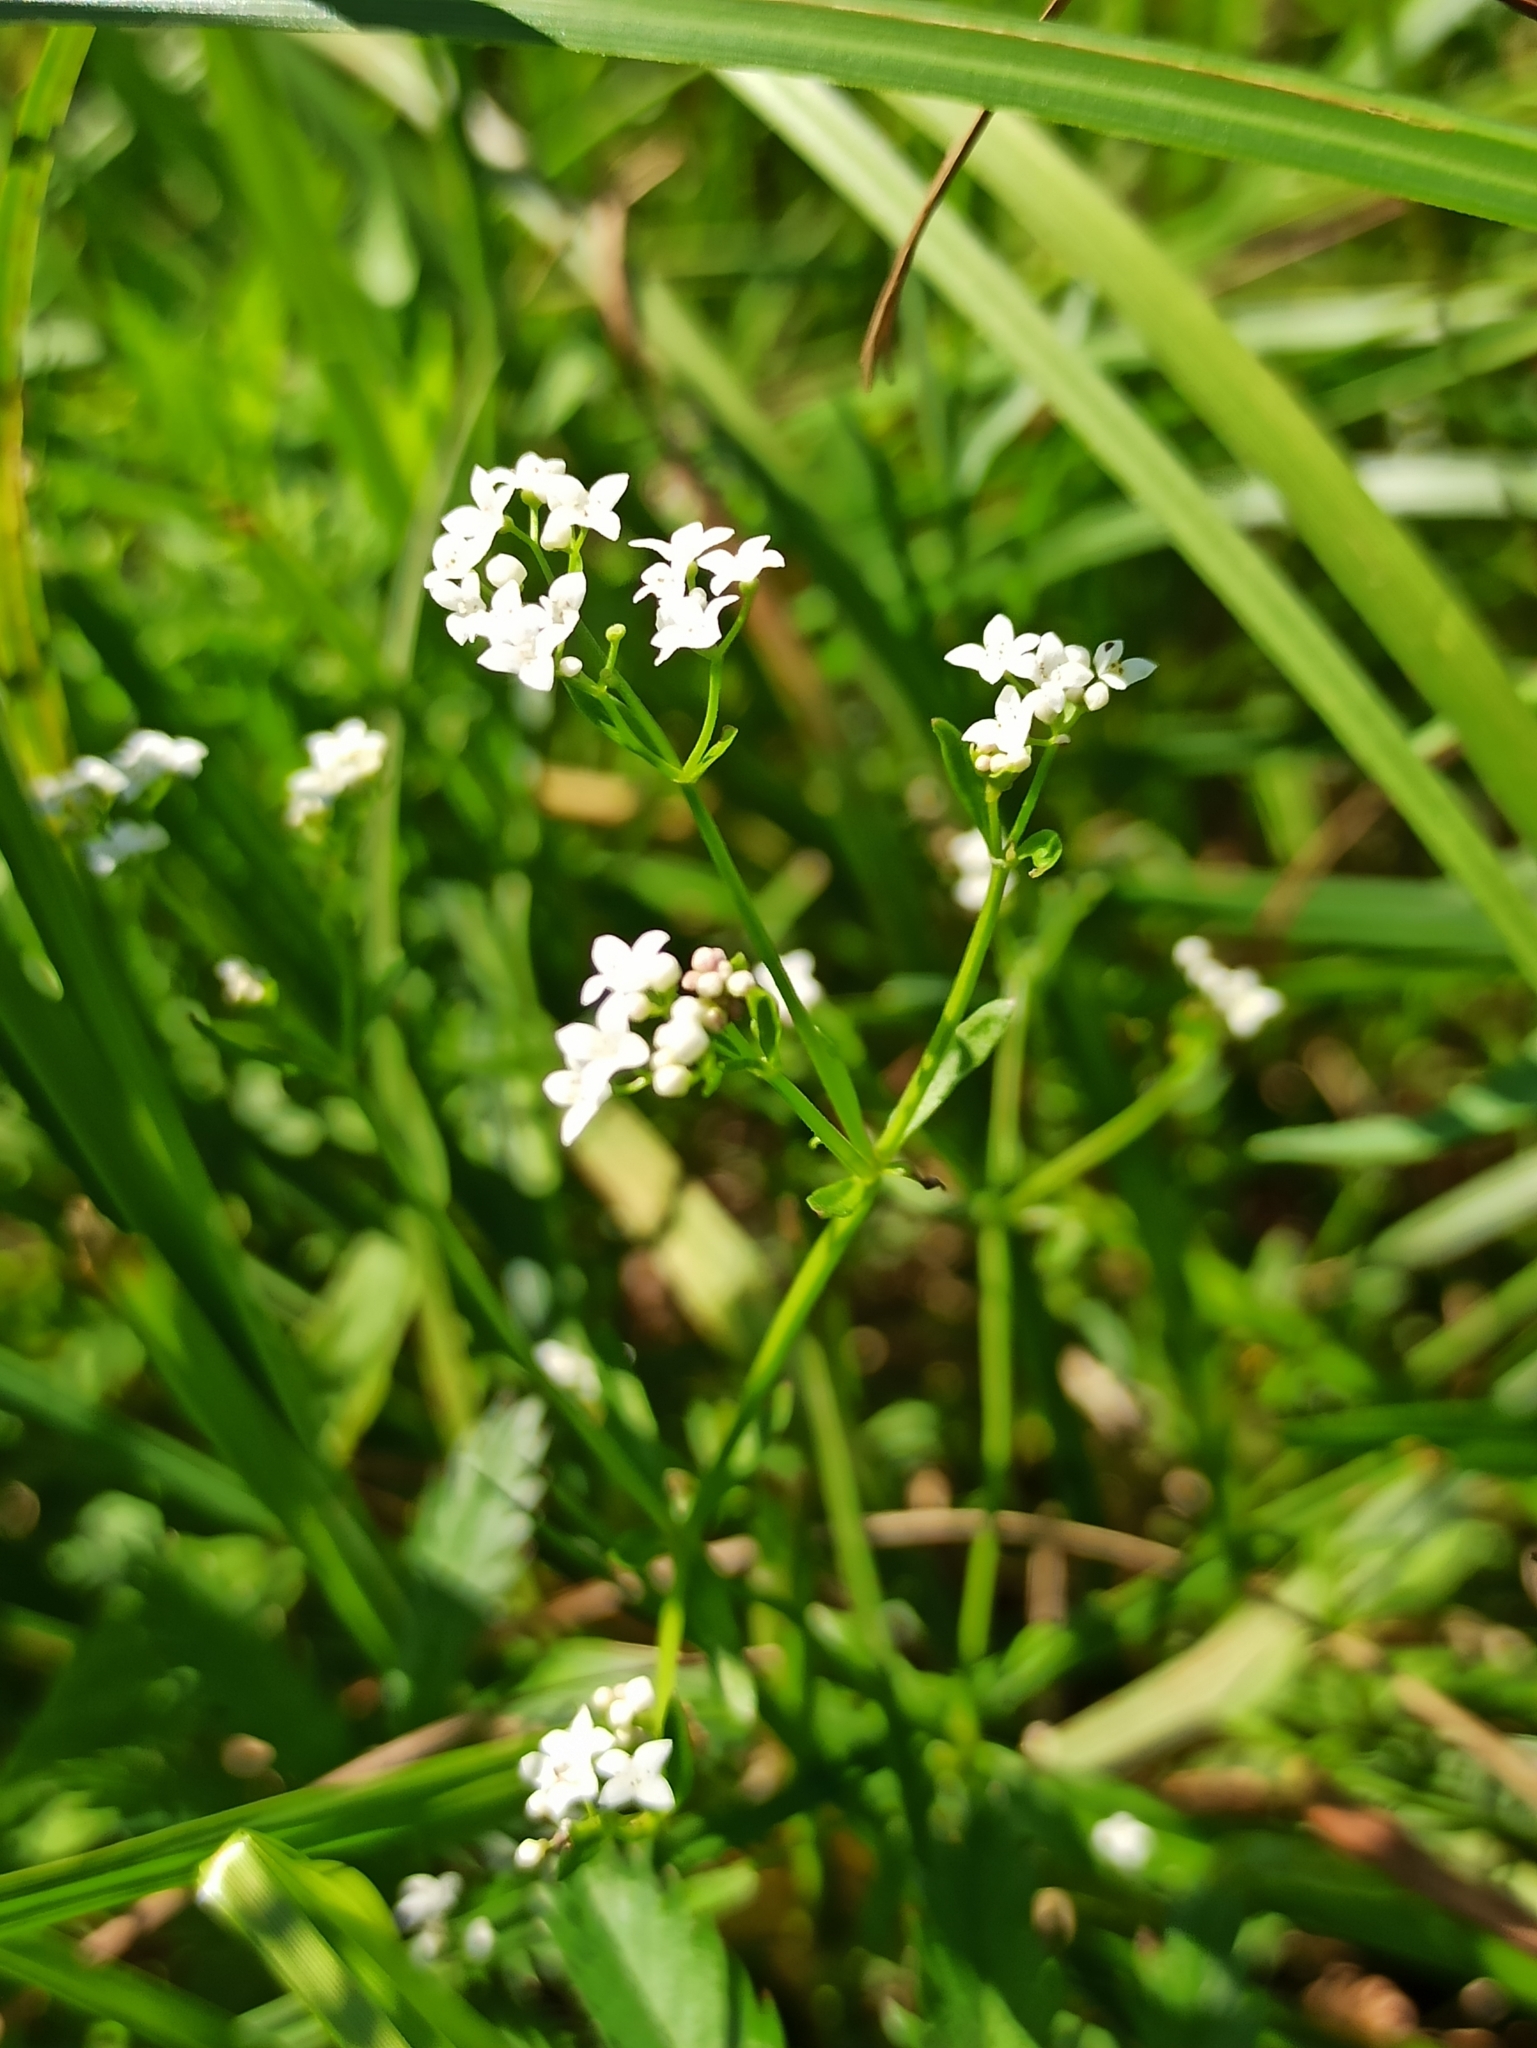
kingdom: Plantae
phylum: Tracheophyta
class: Magnoliopsida
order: Gentianales
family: Rubiaceae
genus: Galium
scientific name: Galium palustre
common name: Common marsh-bedstraw
